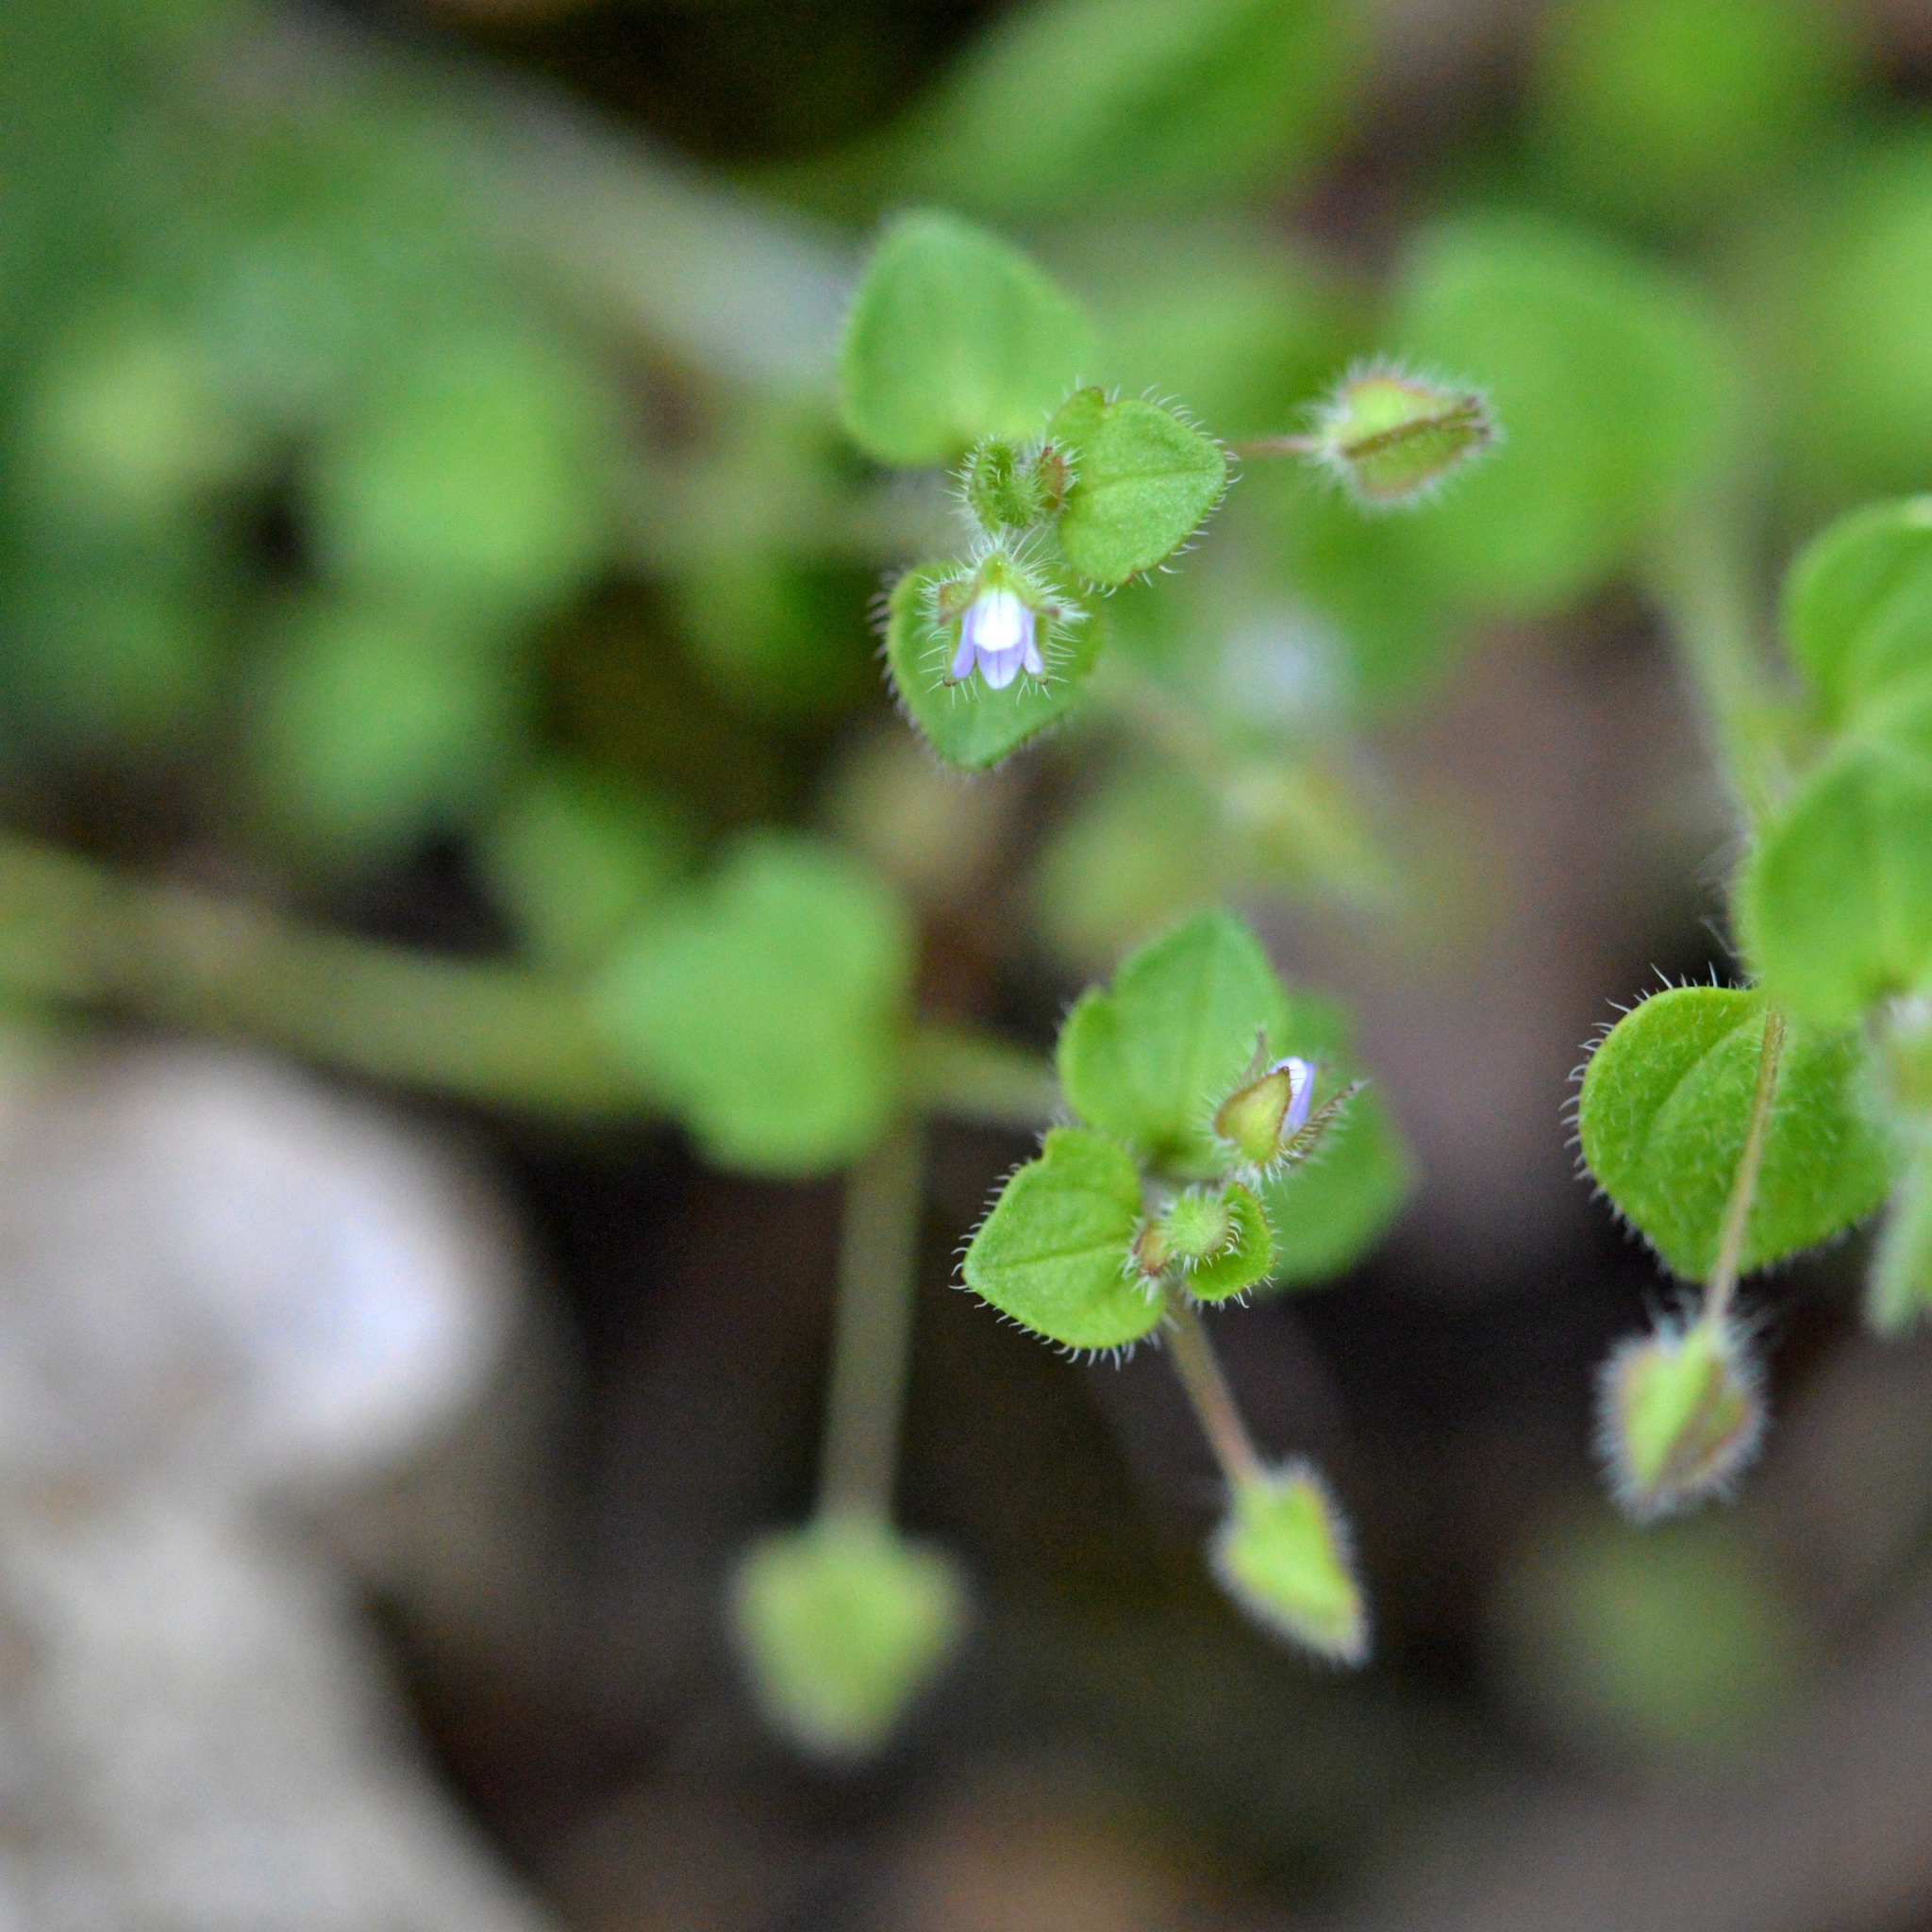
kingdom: Plantae
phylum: Tracheophyta
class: Magnoliopsida
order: Lamiales
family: Plantaginaceae
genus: Veronica
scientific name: Veronica sublobata
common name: False ivy-leaved speedwell
